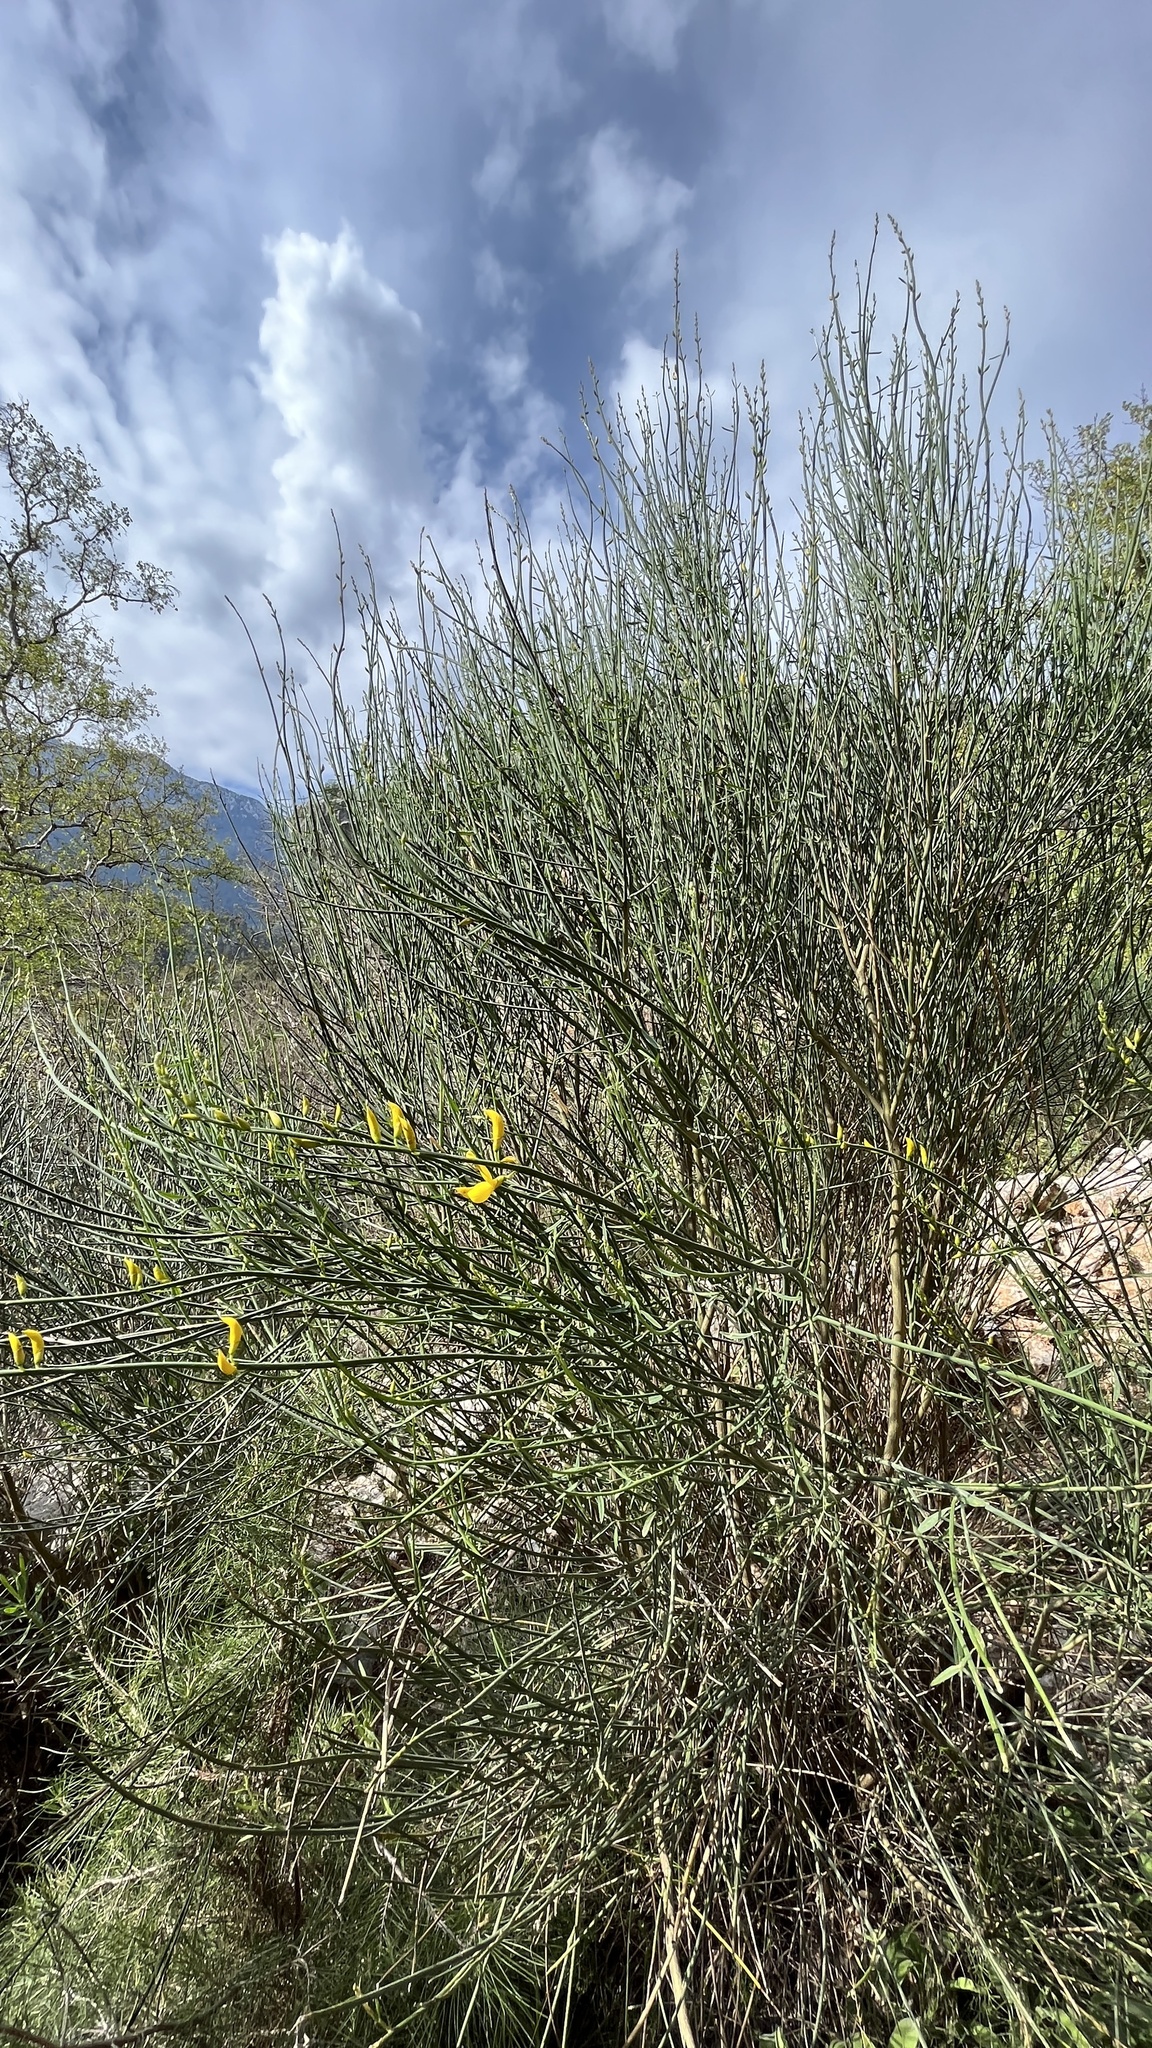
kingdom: Plantae
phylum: Tracheophyta
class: Magnoliopsida
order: Fabales
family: Fabaceae
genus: Spartium
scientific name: Spartium junceum
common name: Spanish broom
